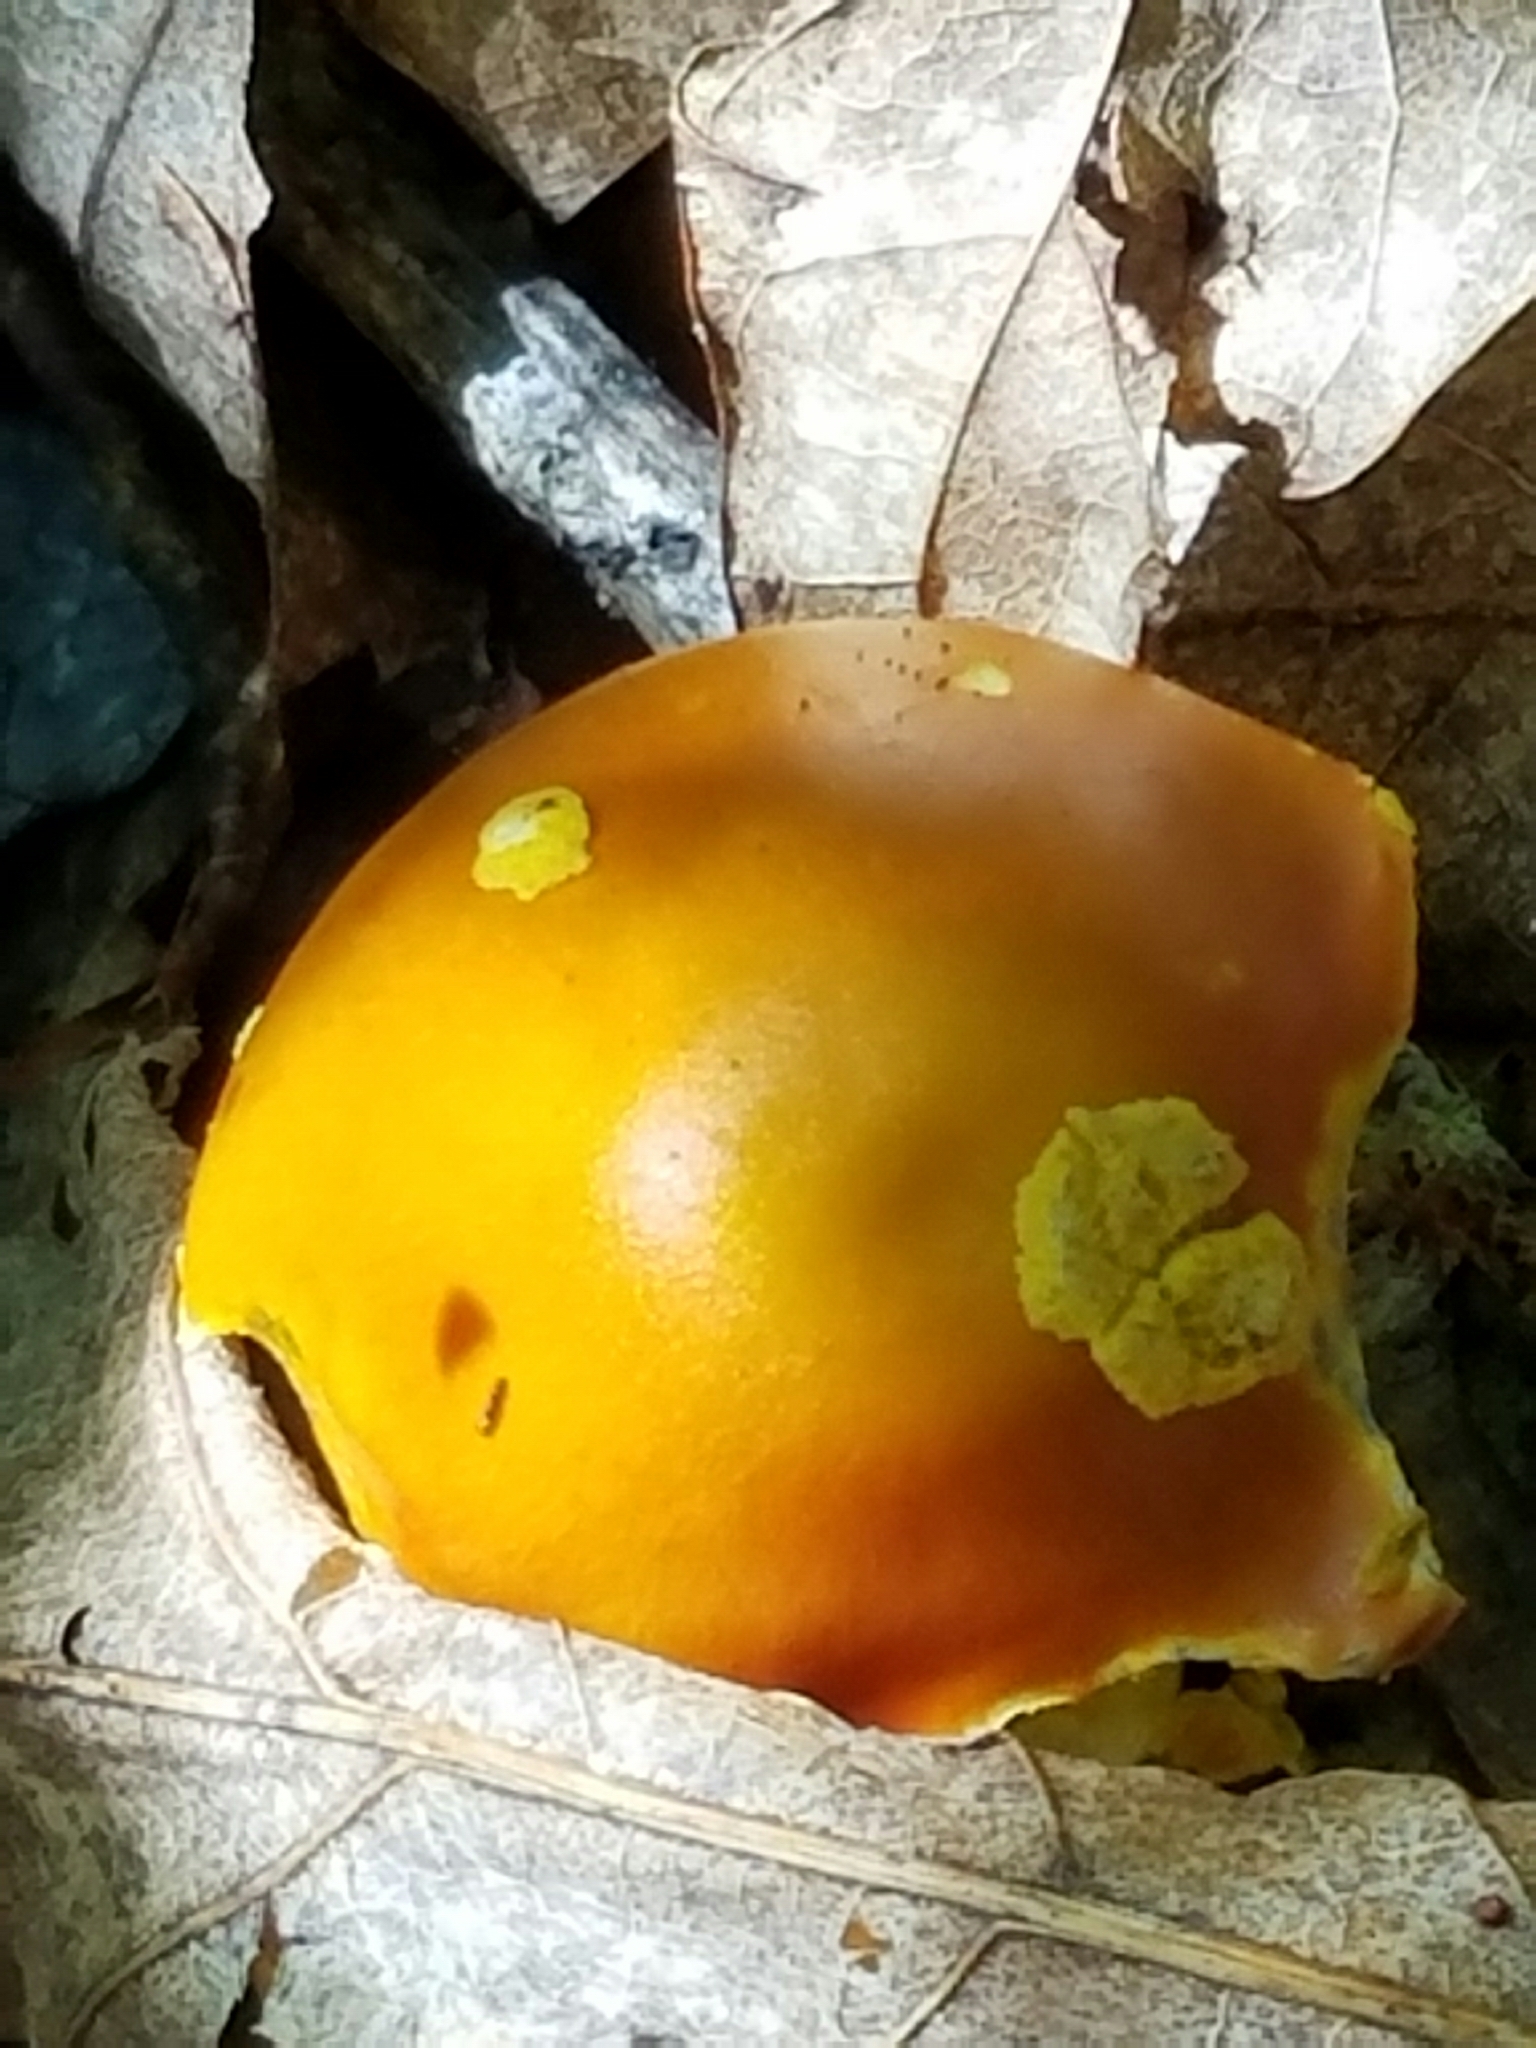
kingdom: Fungi
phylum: Basidiomycota
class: Agaricomycetes
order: Agaricales
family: Amanitaceae
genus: Amanita
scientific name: Amanita flavoconia
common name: Yellow patches
